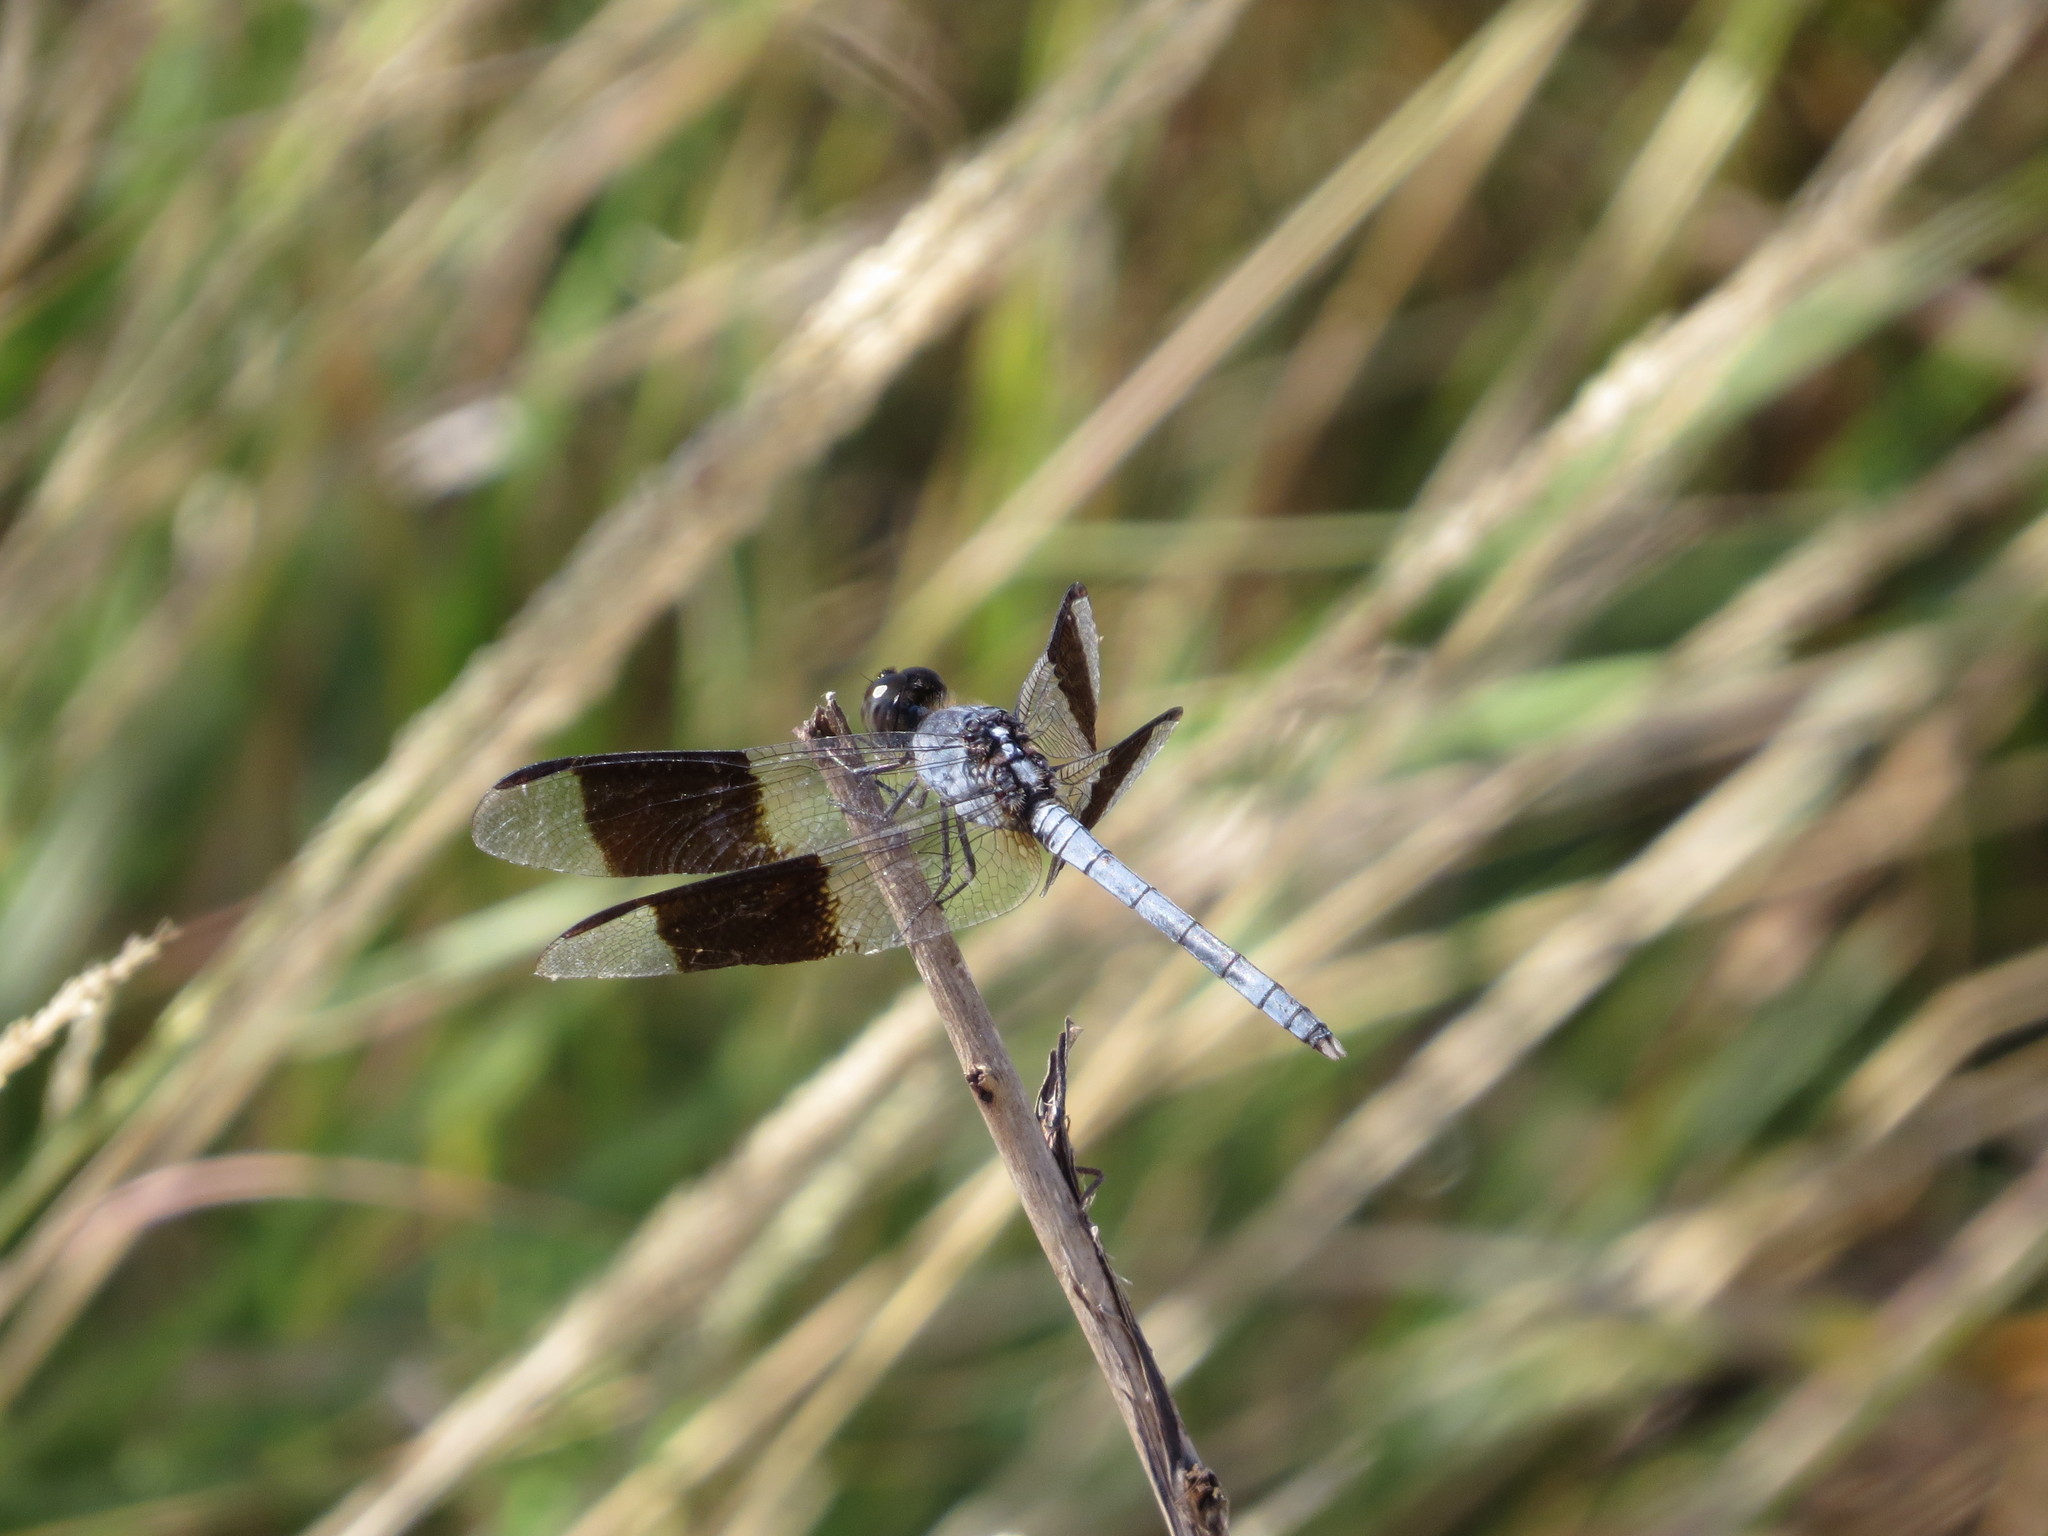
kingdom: Animalia
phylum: Arthropoda
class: Insecta
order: Odonata
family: Libellulidae
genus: Erythrodiplax
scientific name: Erythrodiplax umbrata
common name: Band-winged dragonlet
